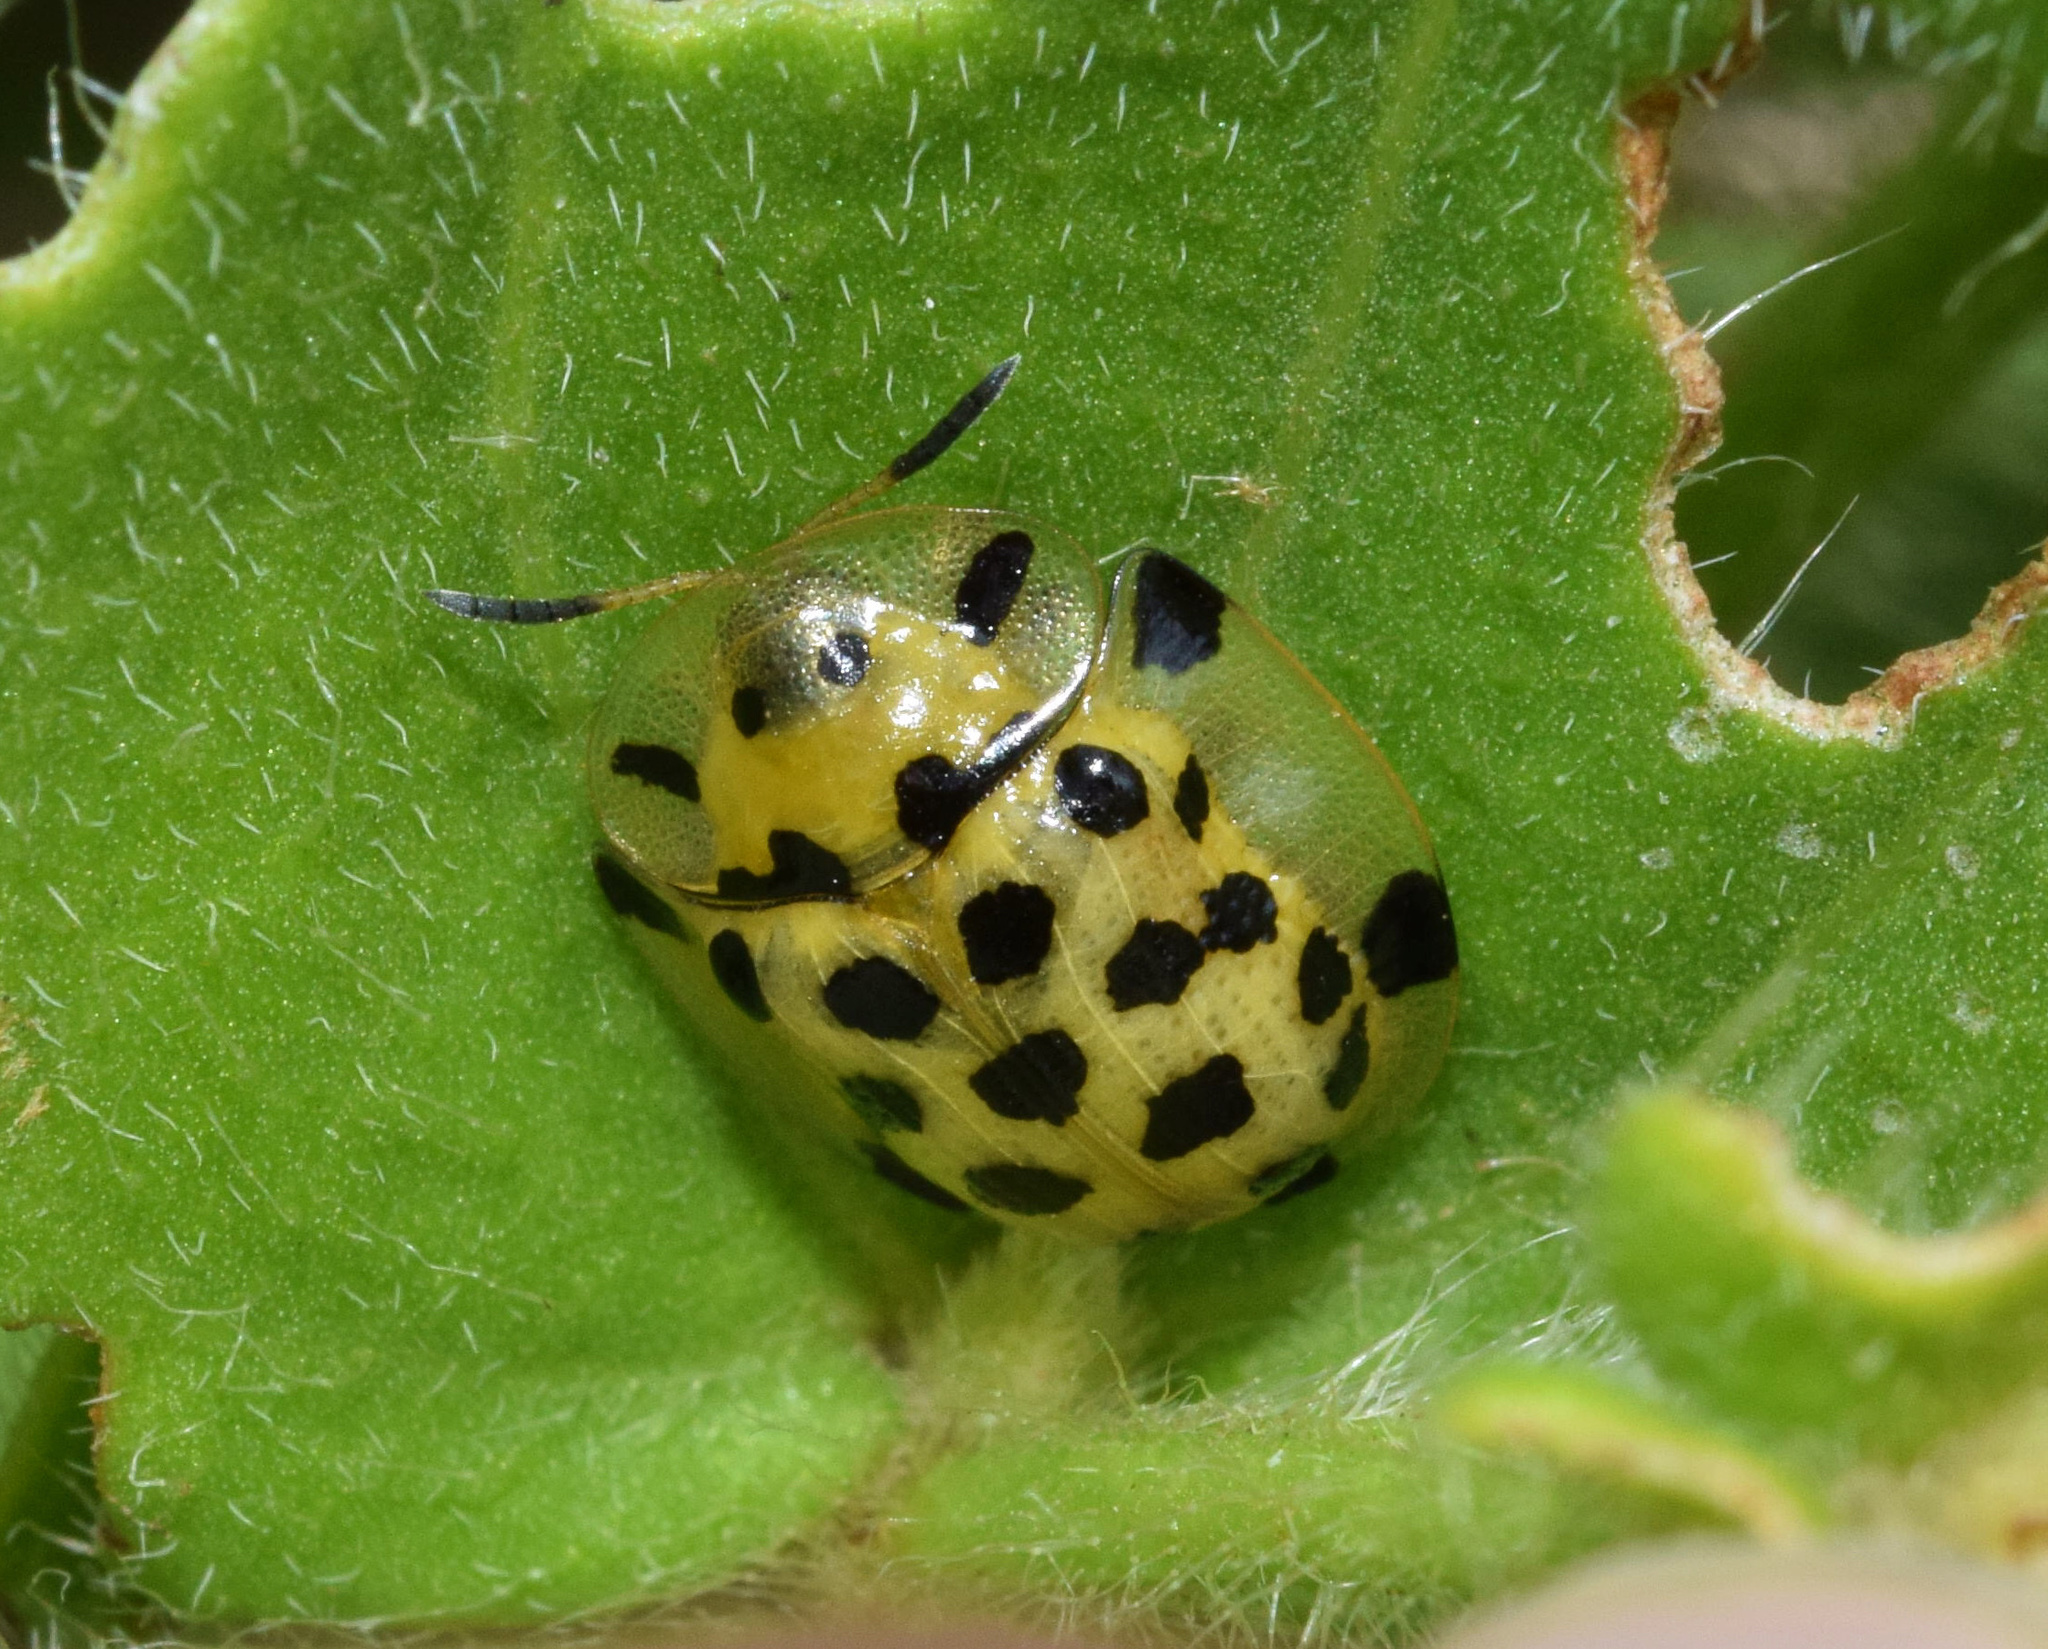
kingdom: Animalia
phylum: Arthropoda
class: Insecta
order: Coleoptera
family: Chrysomelidae
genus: Aethiopocassis
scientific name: Aethiopocassis vigintimaculata
